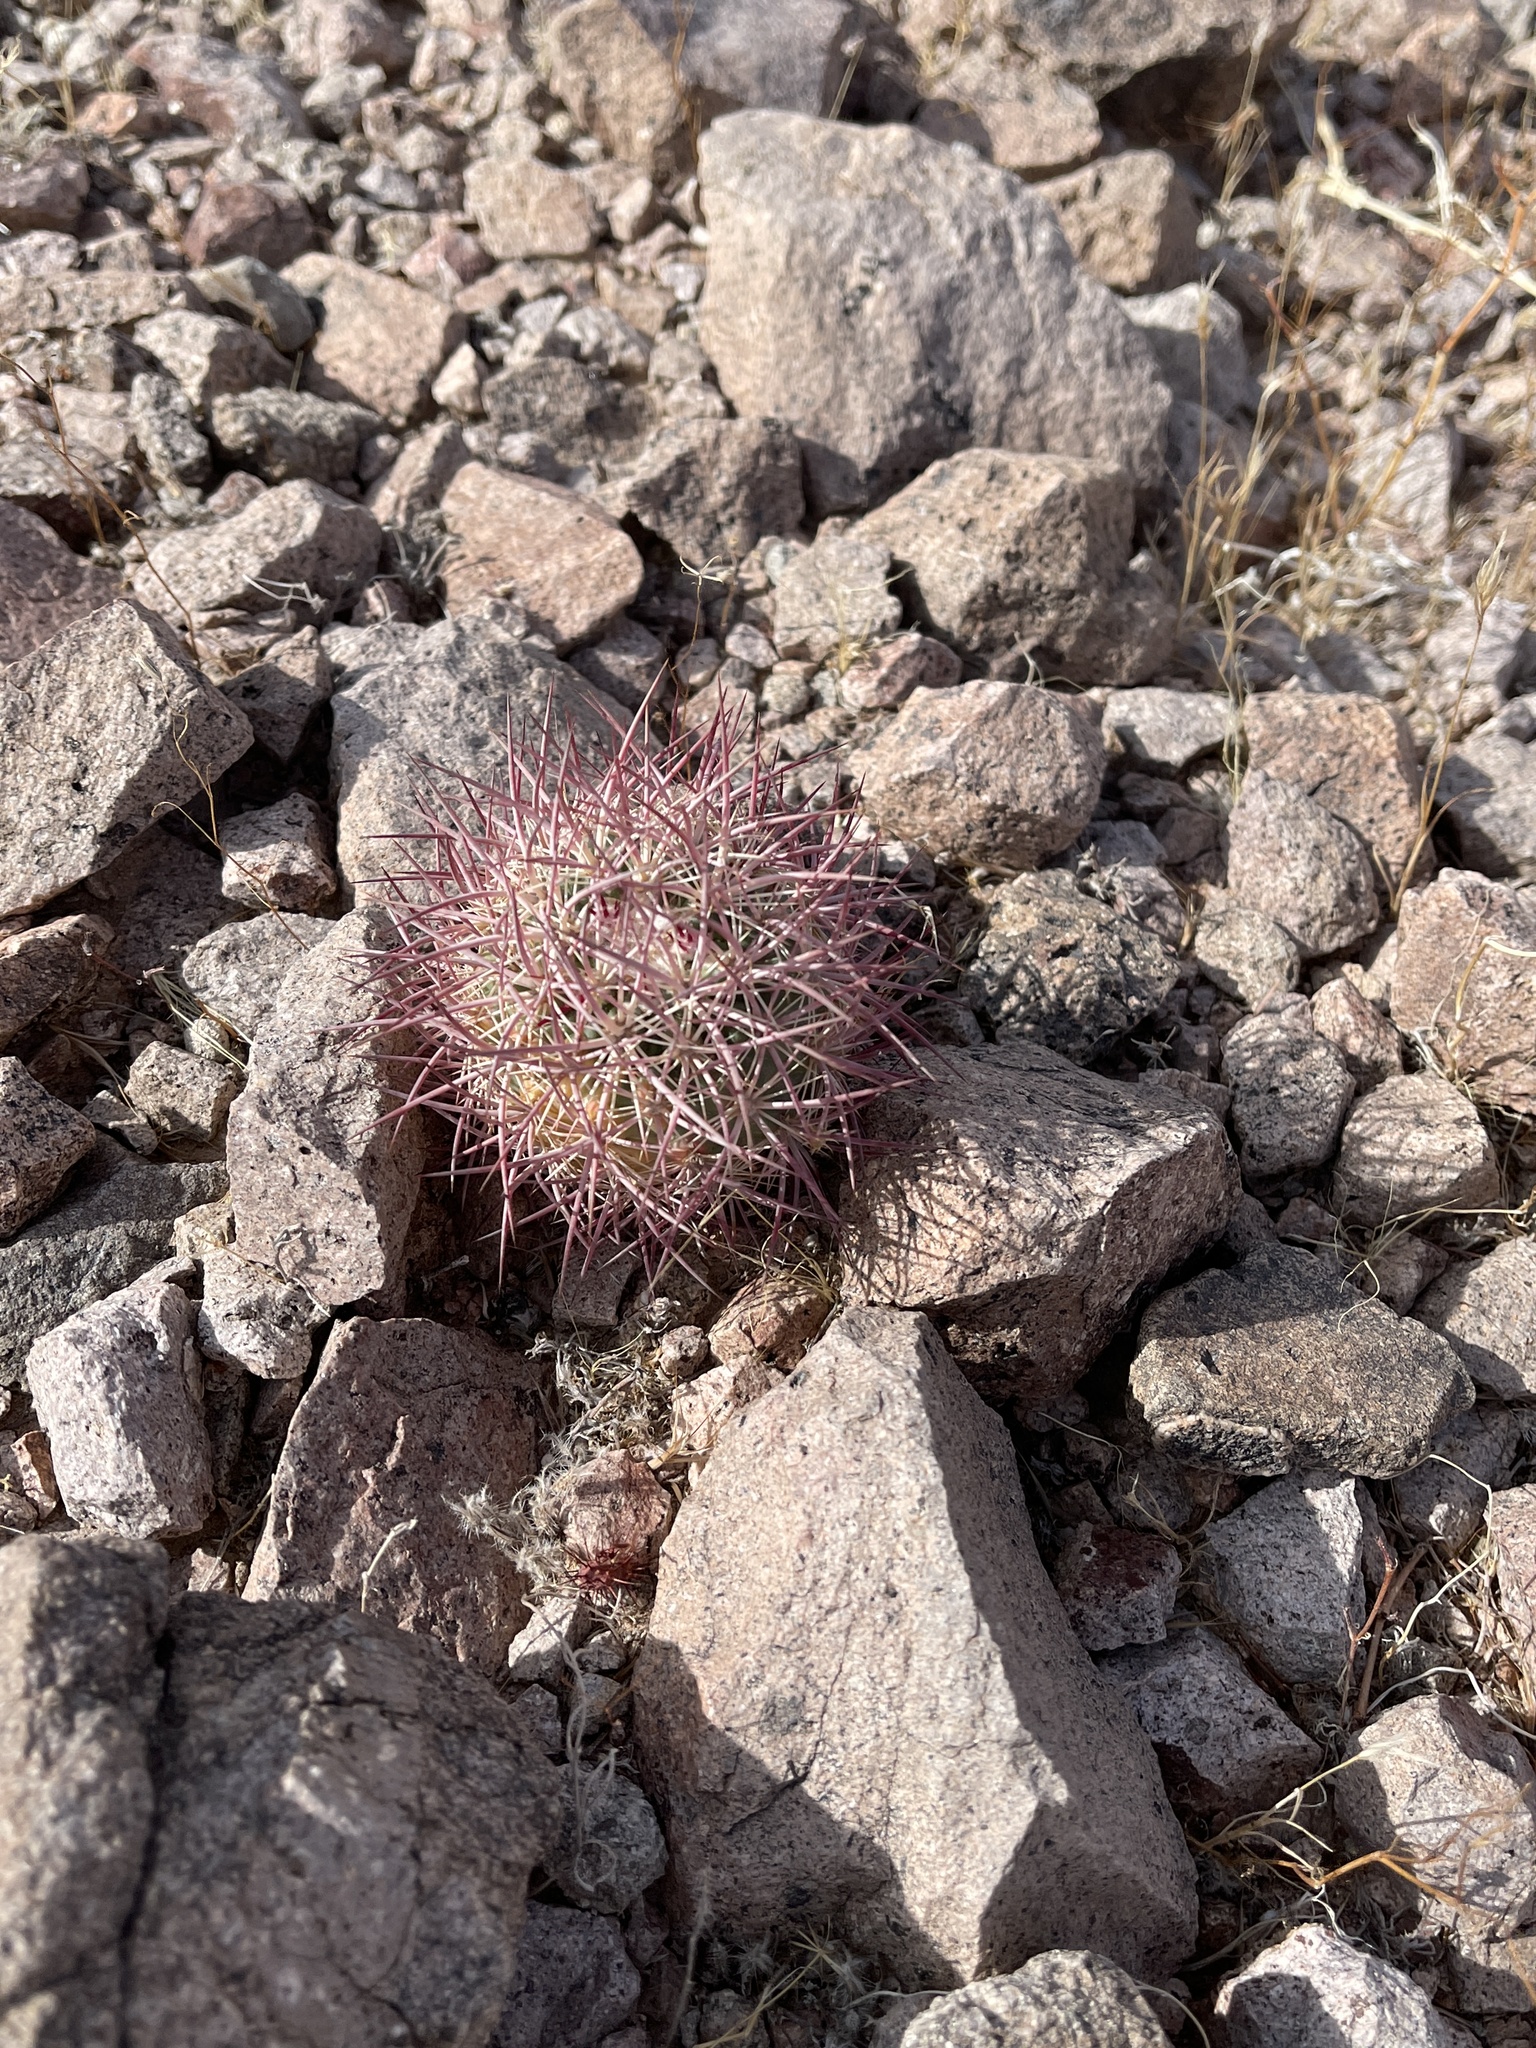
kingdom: Plantae
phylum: Tracheophyta
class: Magnoliopsida
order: Caryophyllales
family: Cactaceae
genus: Sclerocactus
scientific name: Sclerocactus johnsonii
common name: Eight-spine fishhook cactus
